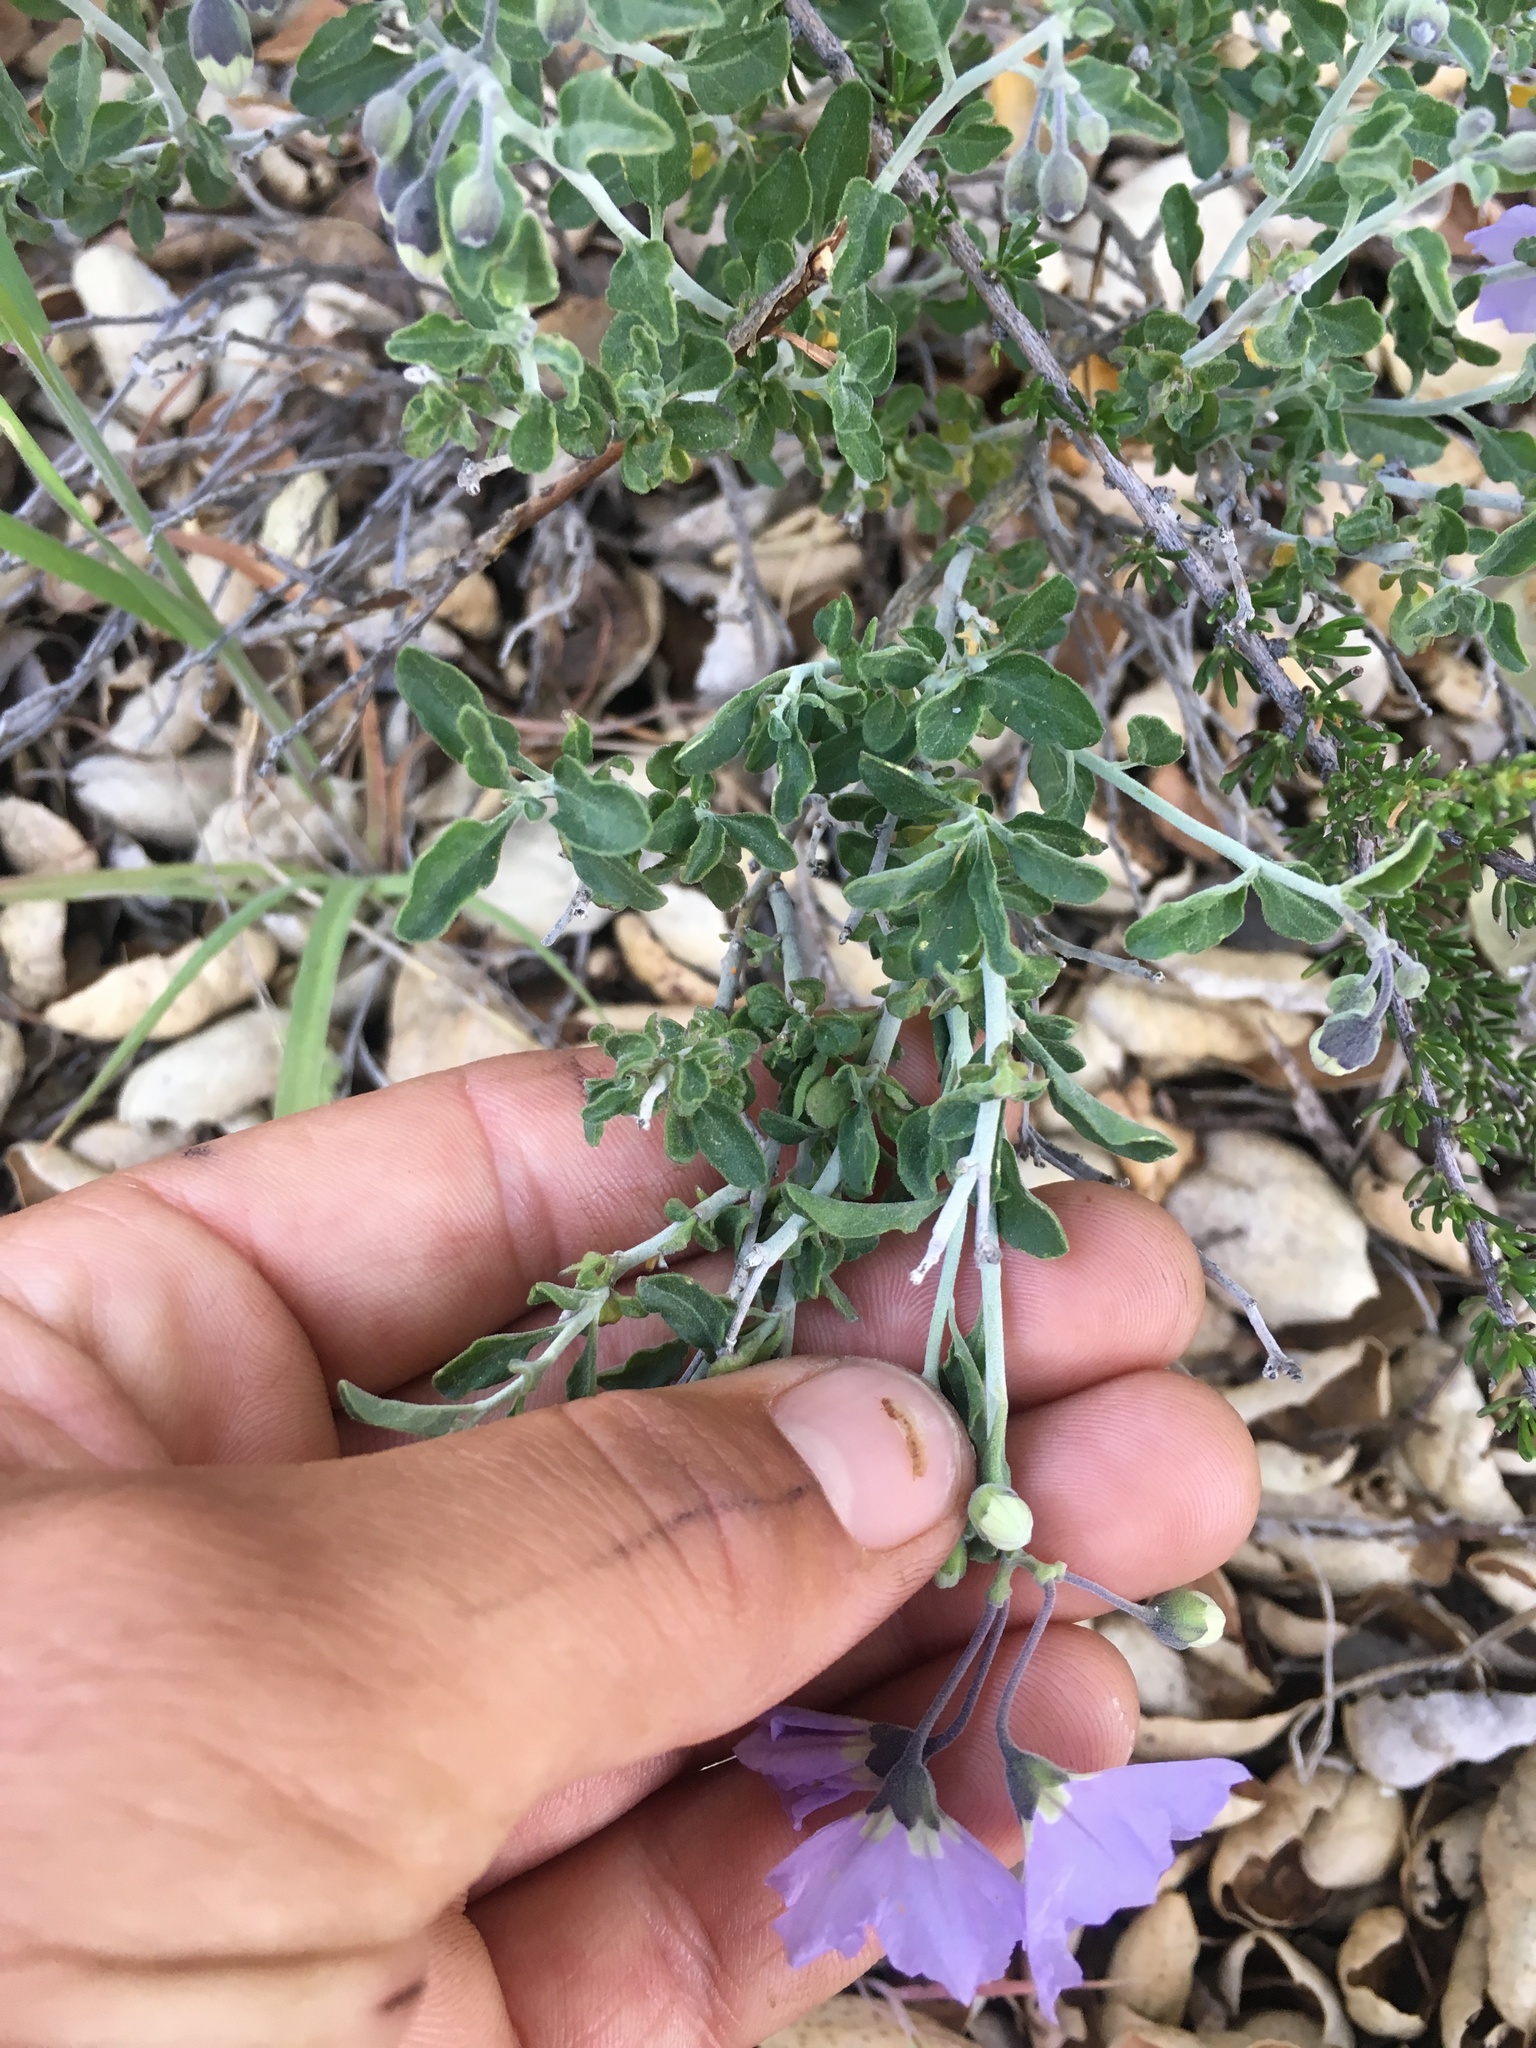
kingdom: Plantae
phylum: Tracheophyta
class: Magnoliopsida
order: Solanales
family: Solanaceae
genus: Solanum
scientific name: Solanum umbelliferum
